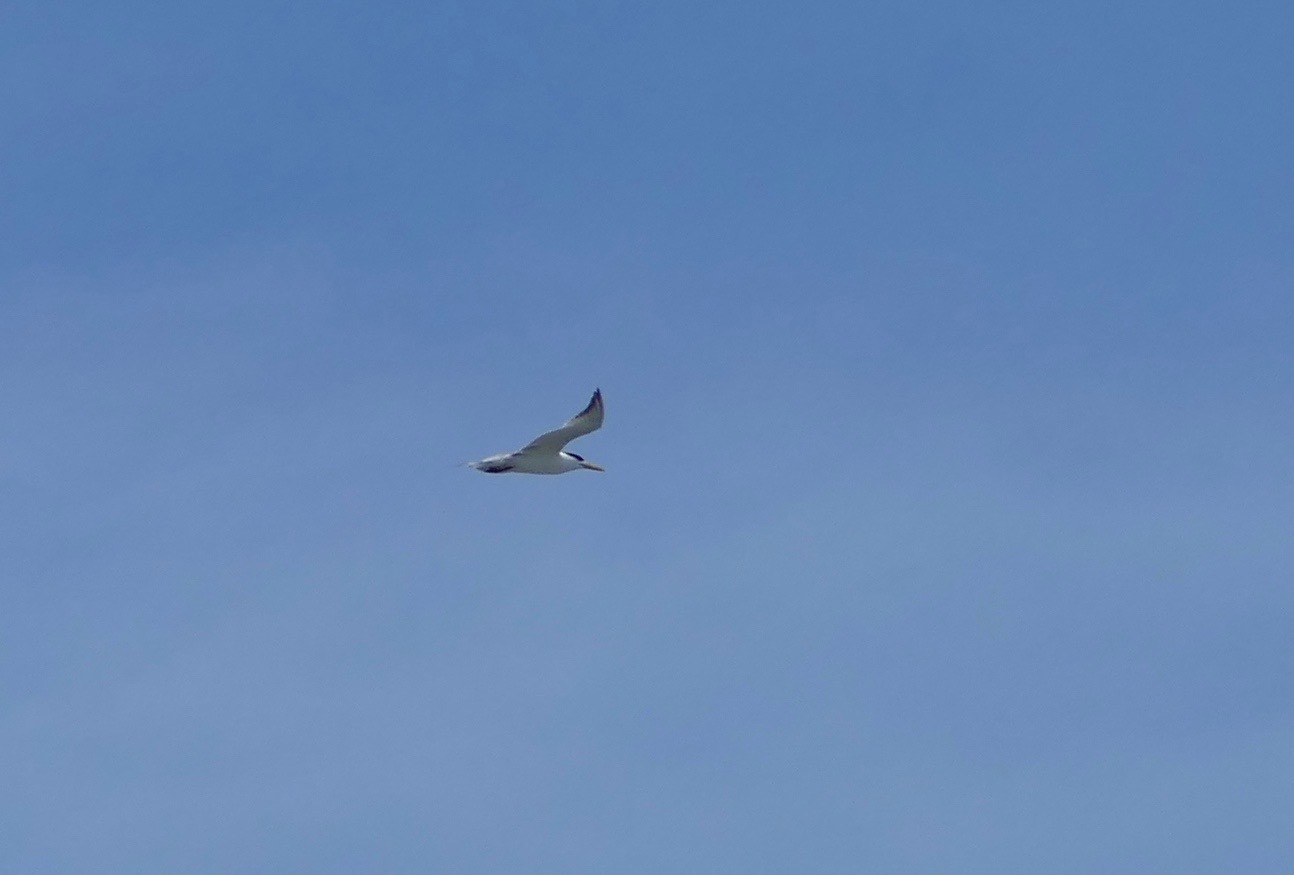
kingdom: Animalia
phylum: Chordata
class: Aves
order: Charadriiformes
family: Laridae
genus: Thalasseus
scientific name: Thalasseus bergii
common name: Greater crested tern
